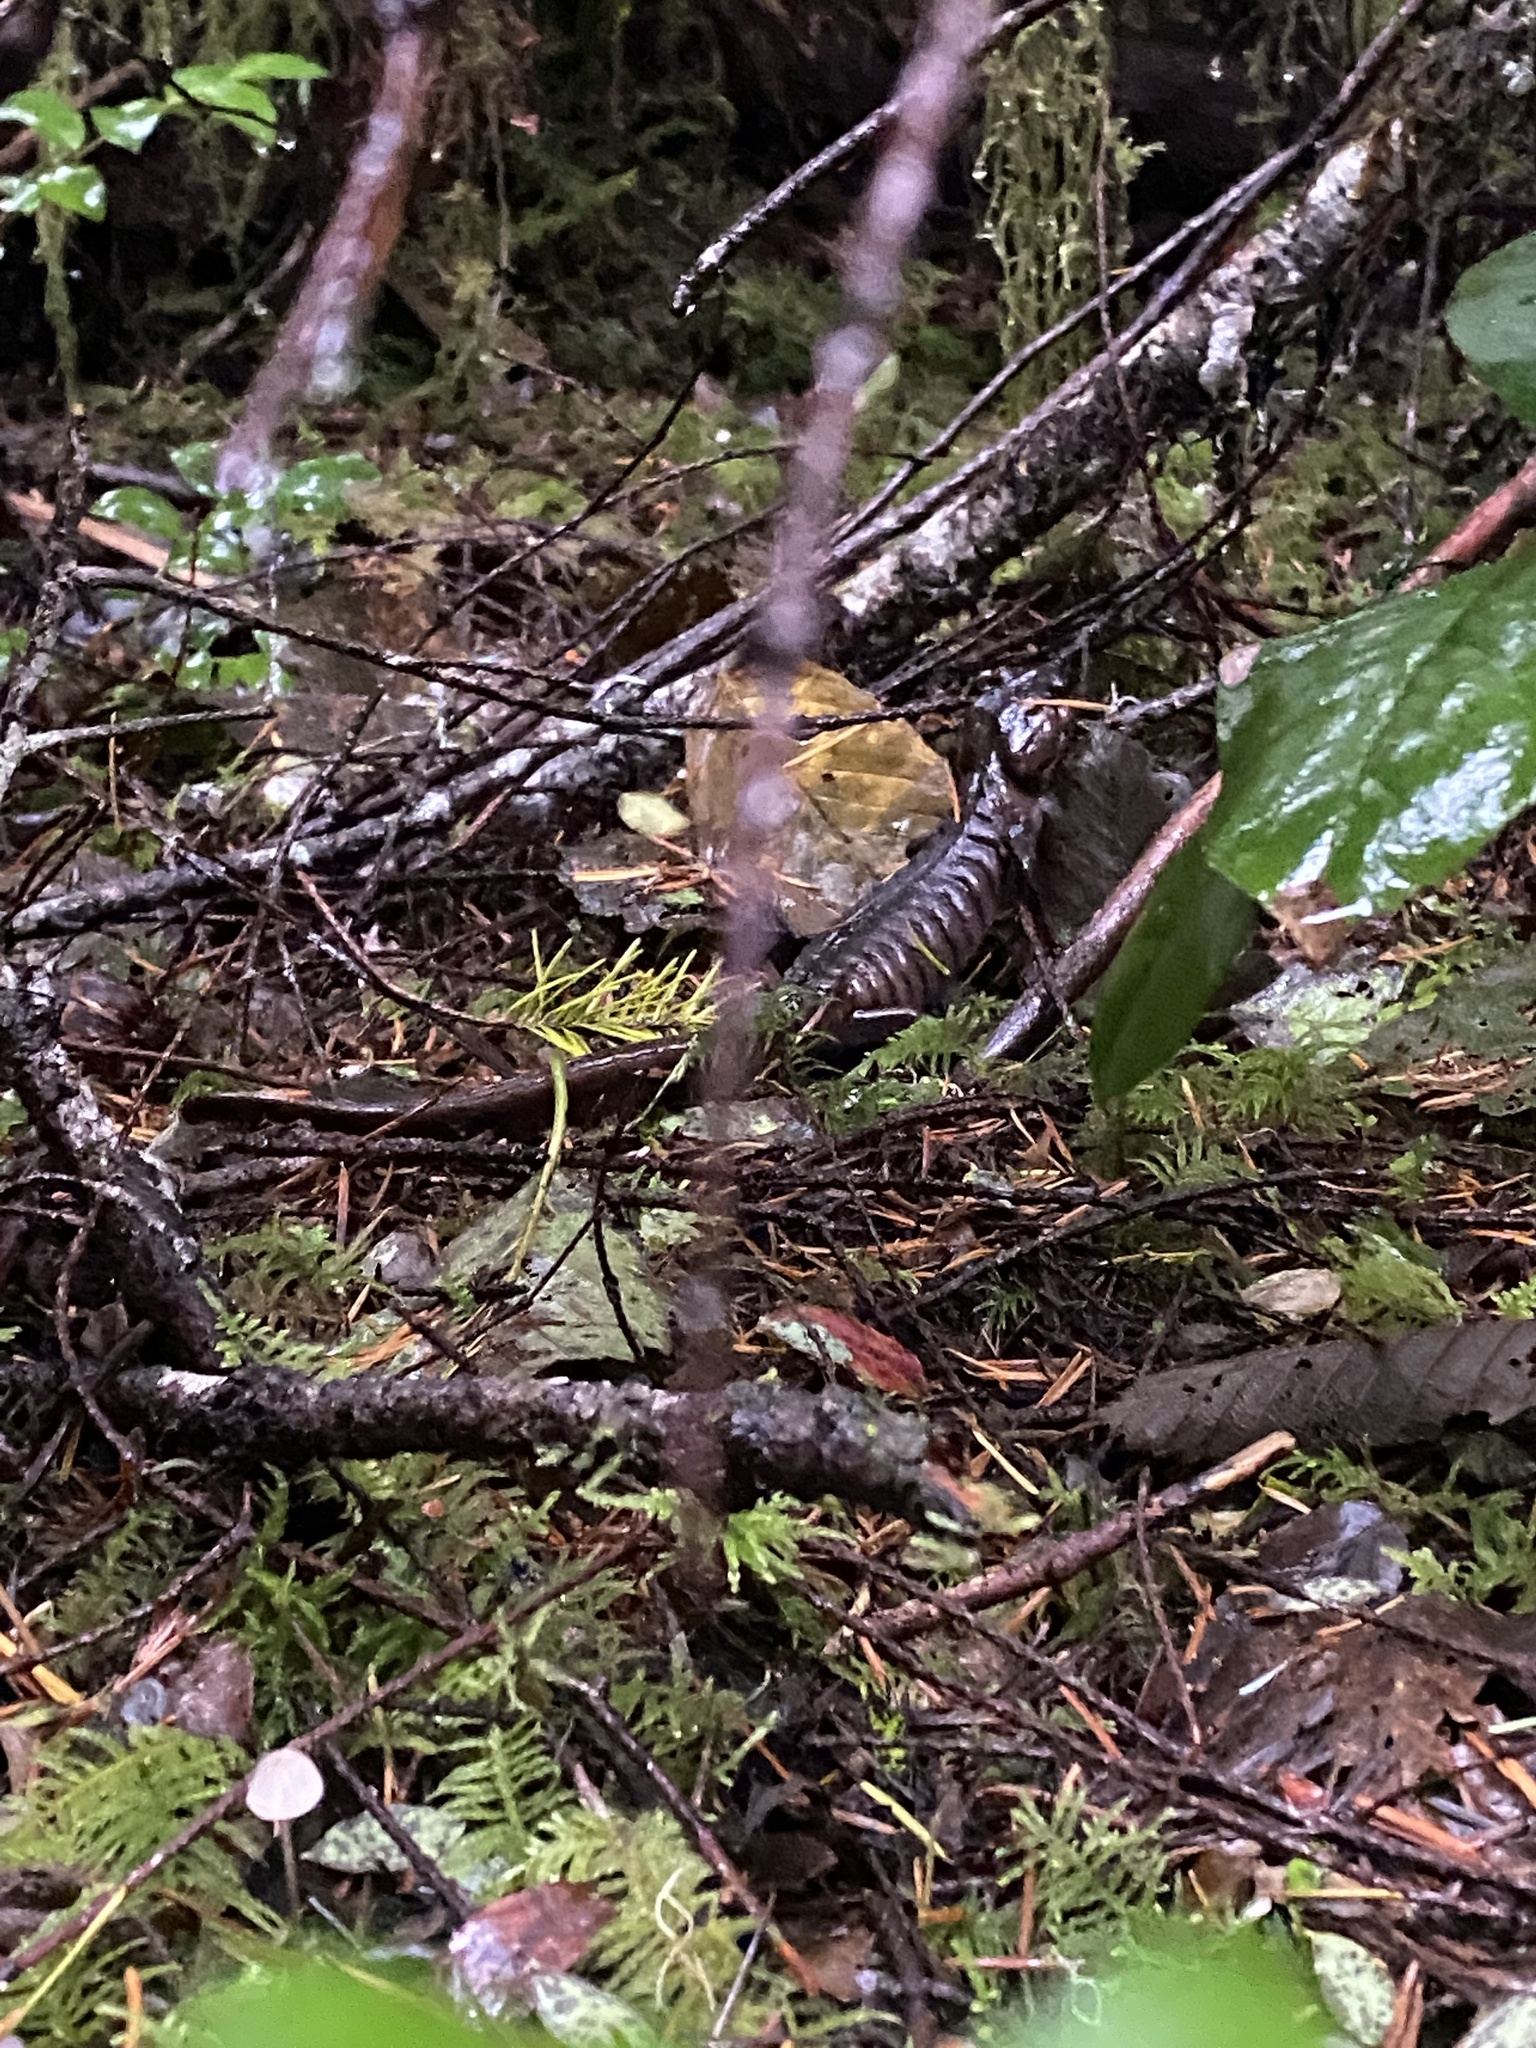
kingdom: Animalia
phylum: Chordata
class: Amphibia
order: Caudata
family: Ambystomatidae
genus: Ambystoma
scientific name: Ambystoma gracile
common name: Northwestern salamander
